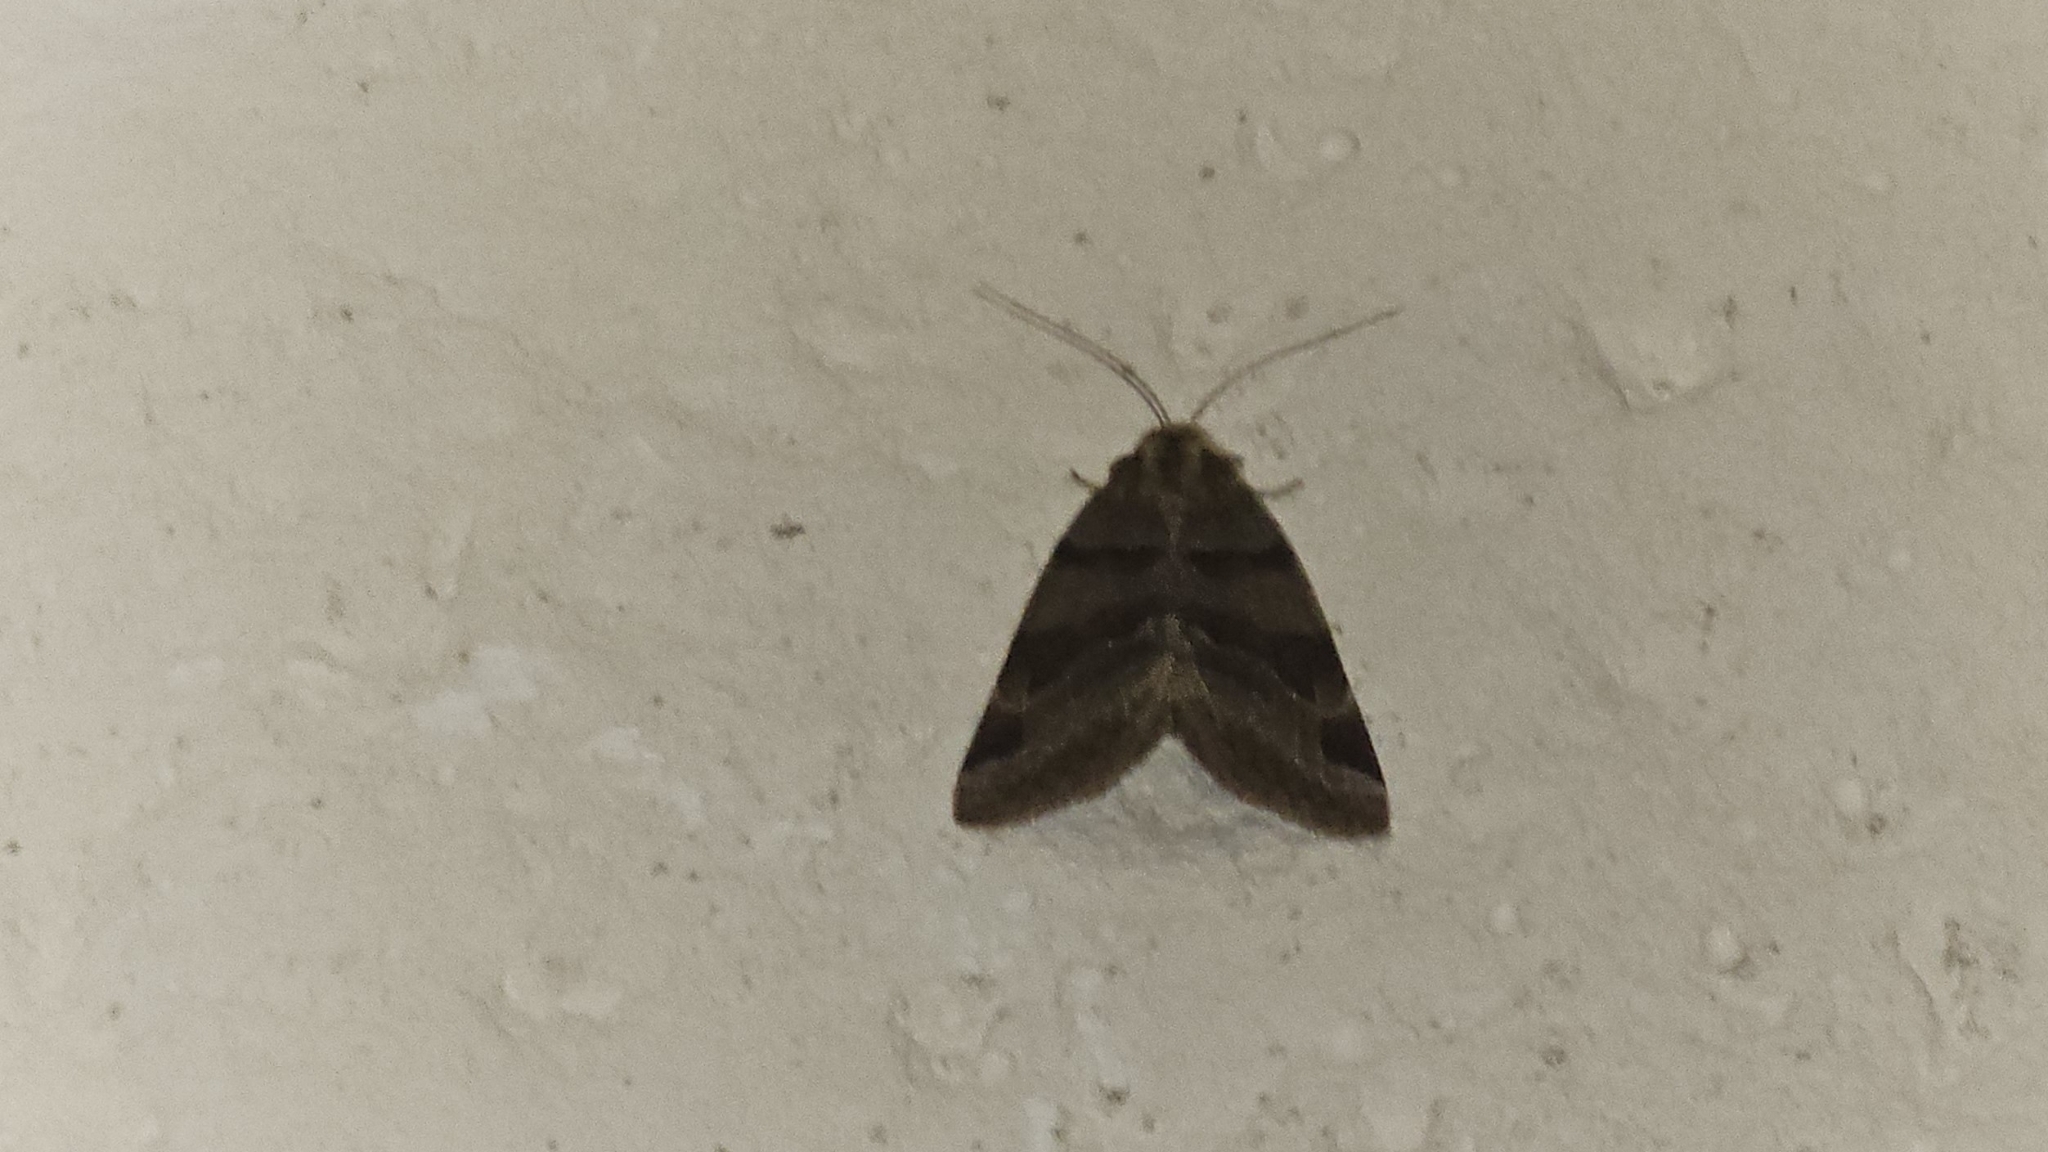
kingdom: Animalia
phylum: Arthropoda
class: Insecta
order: Lepidoptera
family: Erebidae
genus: Euclidia
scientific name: Euclidia glyphica
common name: Burnet companion
